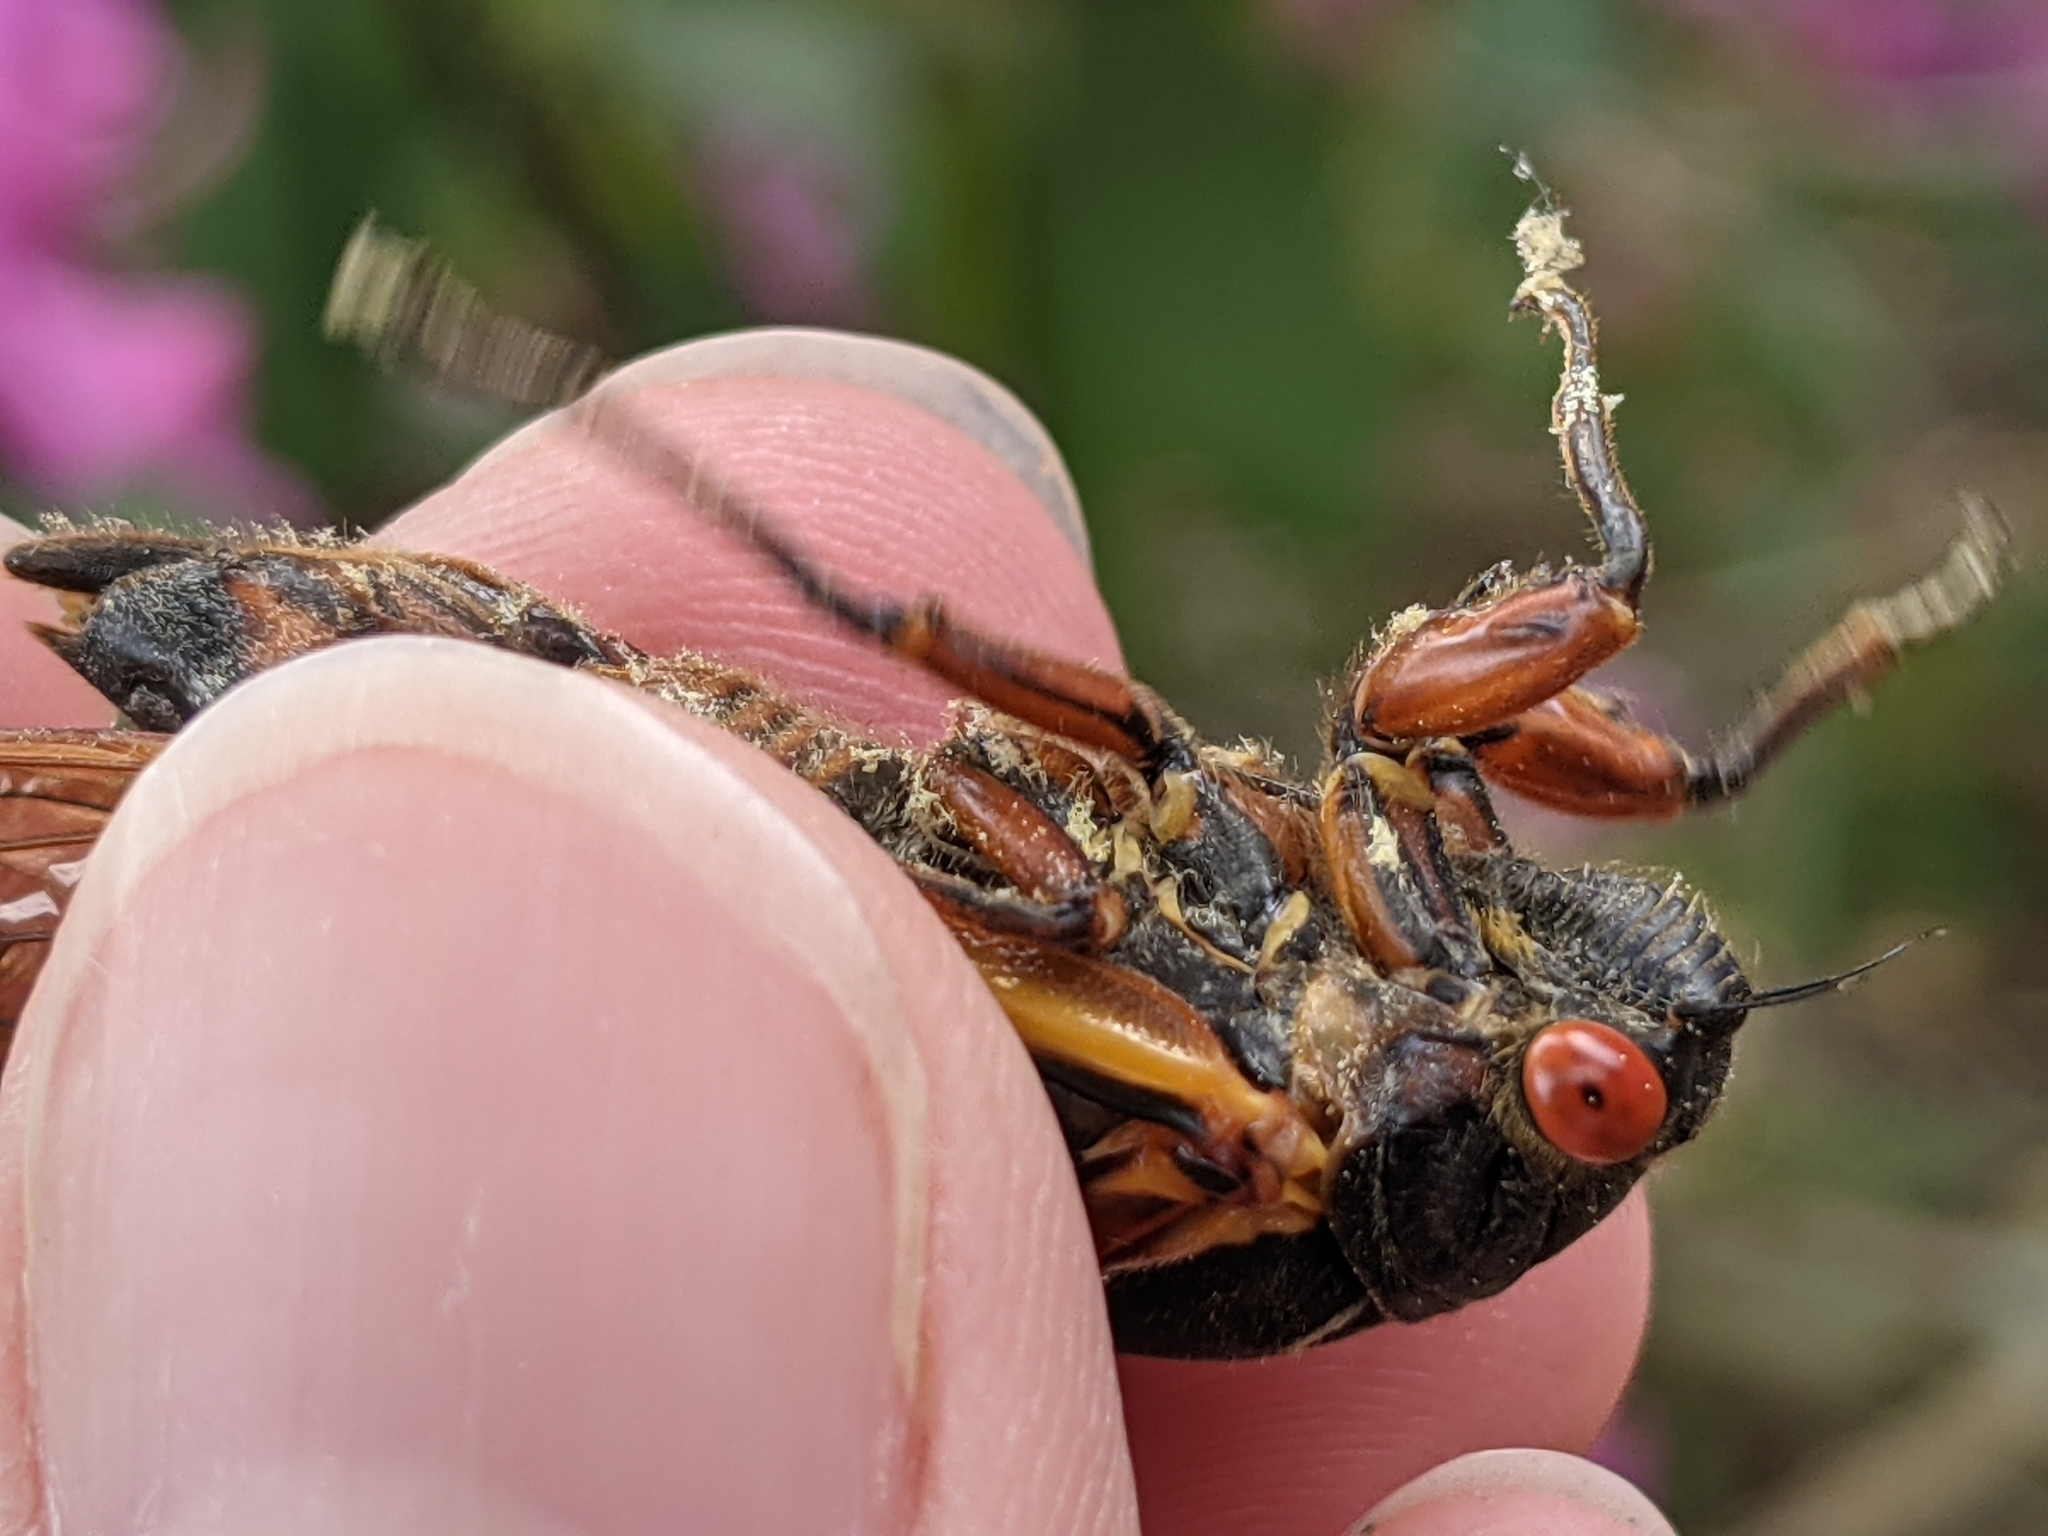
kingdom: Animalia
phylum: Arthropoda
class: Insecta
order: Hemiptera
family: Cicadidae
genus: Magicicada
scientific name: Magicicada septendecim
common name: Periodical cicada
